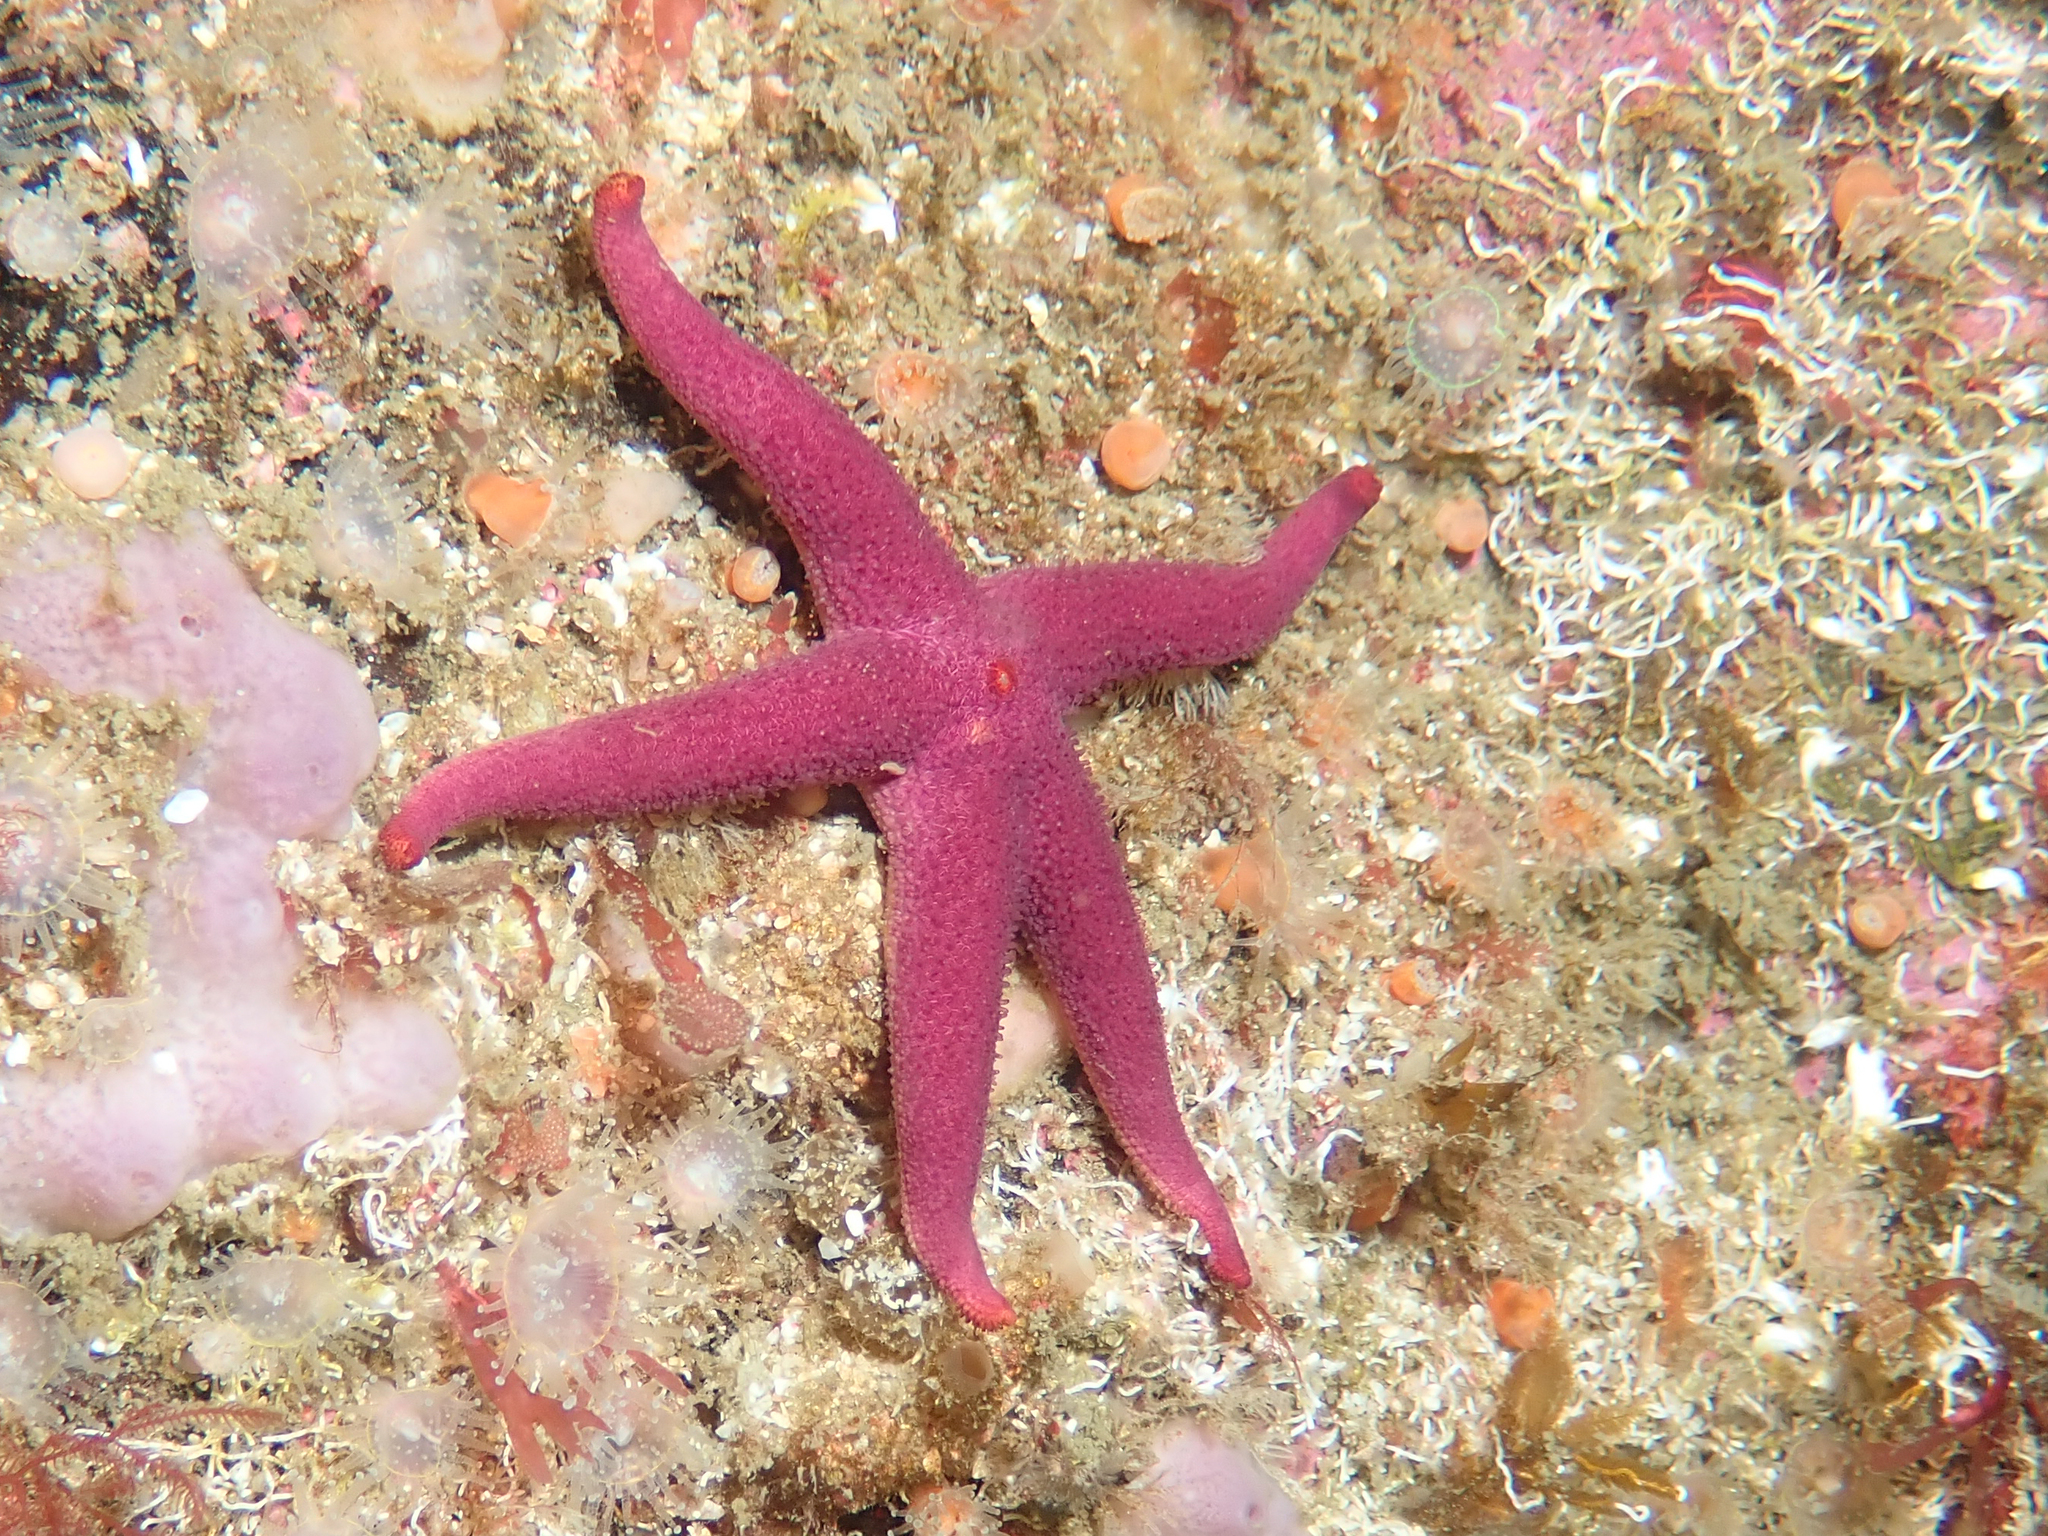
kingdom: Animalia
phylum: Echinodermata
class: Asteroidea
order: Spinulosida
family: Echinasteridae
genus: Henricia
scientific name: Henricia sanguinolenta
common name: Blood star
